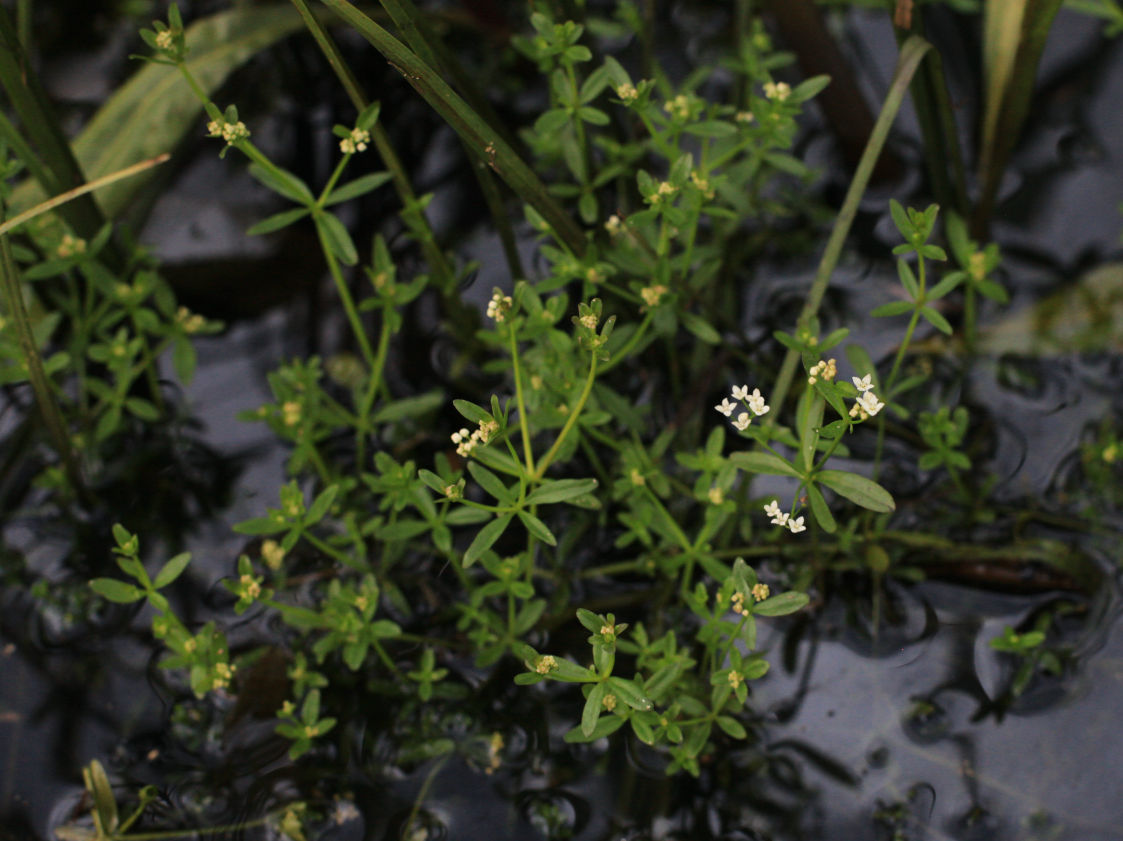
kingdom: Plantae
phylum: Tracheophyta
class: Magnoliopsida
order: Gentianales
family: Rubiaceae
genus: Galium
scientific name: Galium palustre
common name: Common marsh-bedstraw
